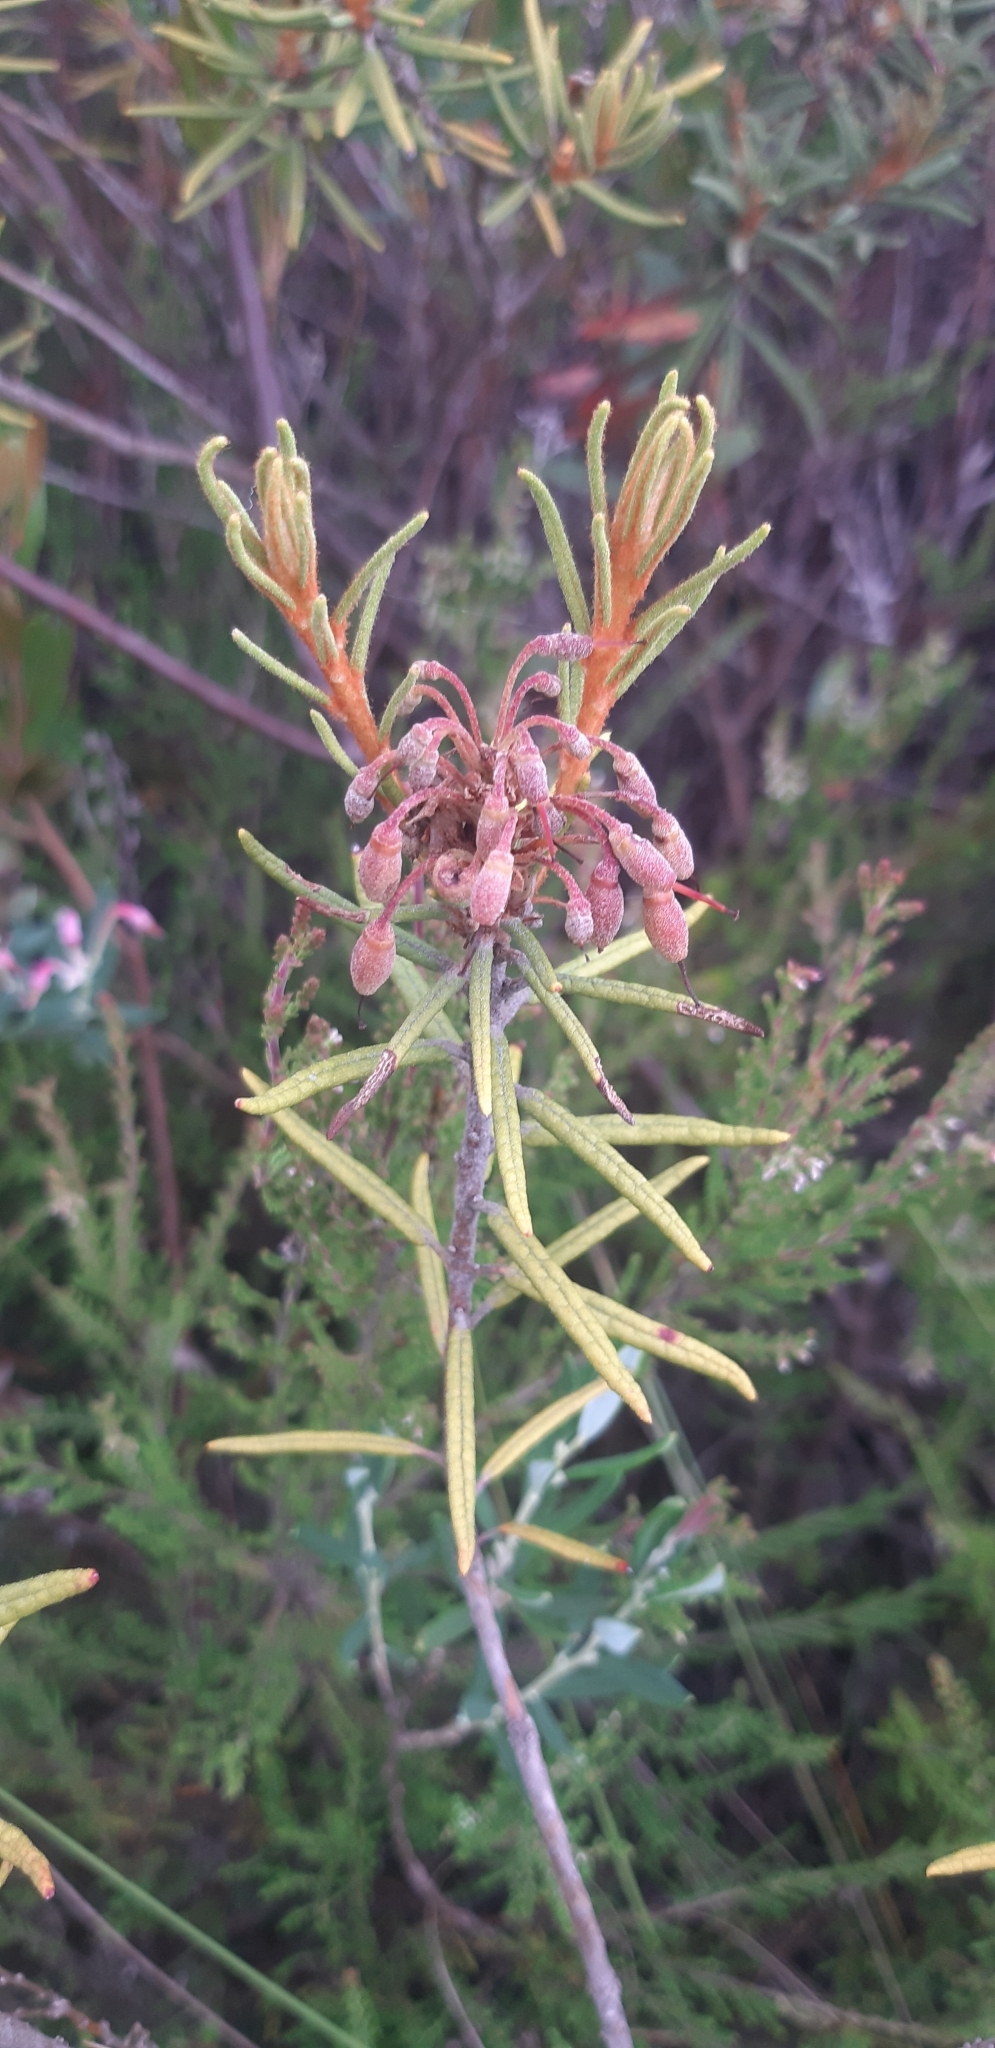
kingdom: Plantae
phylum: Tracheophyta
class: Magnoliopsida
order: Ericales
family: Ericaceae
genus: Rhododendron
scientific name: Rhododendron tomentosum
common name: Marsh labrador tea
